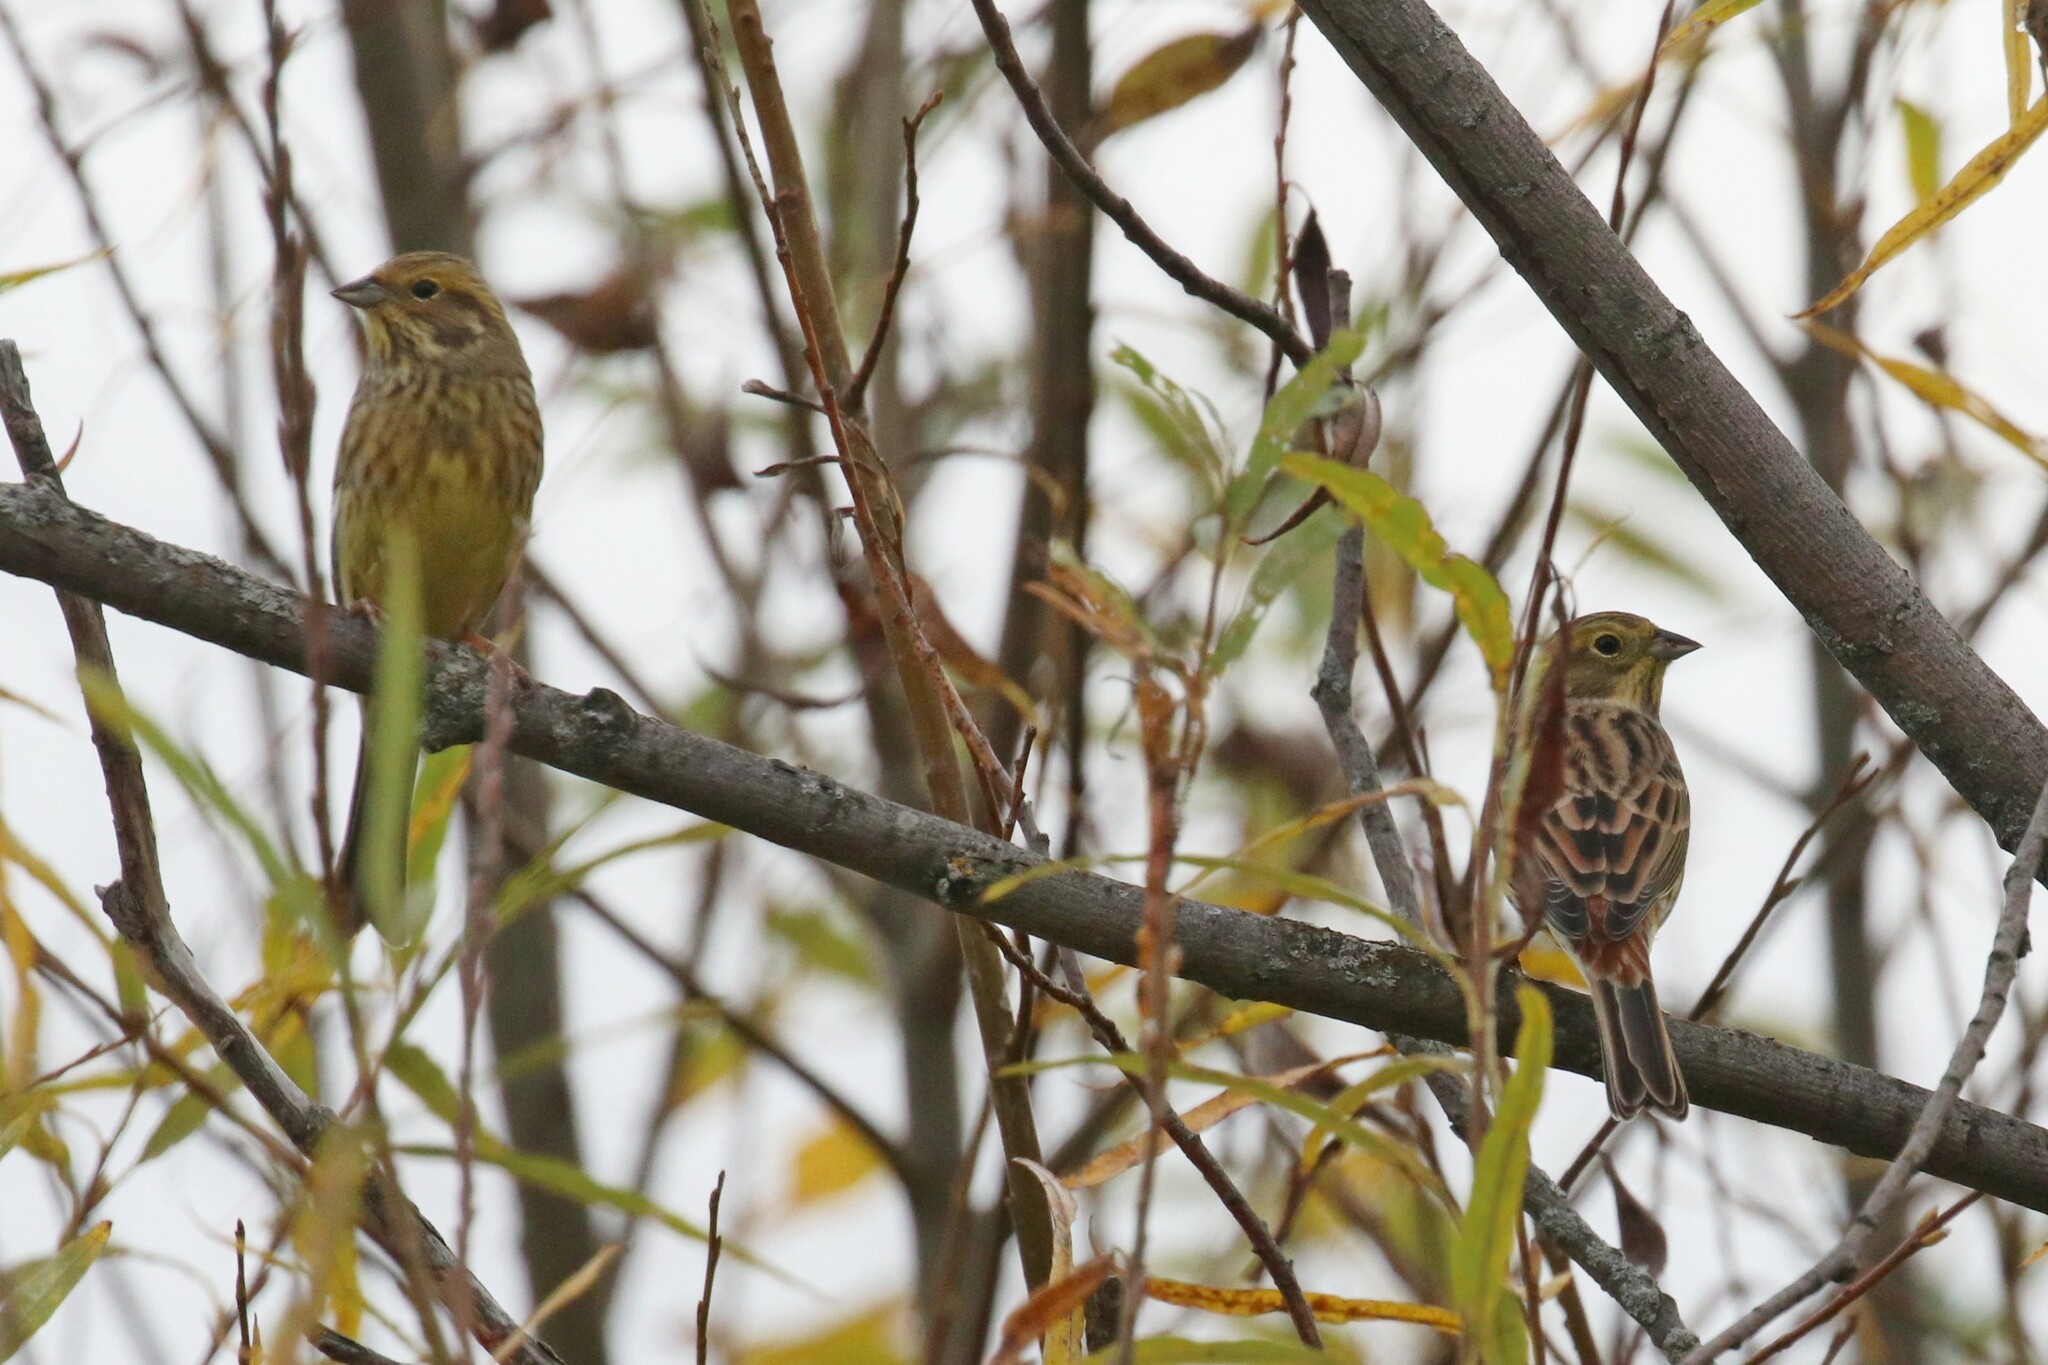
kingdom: Animalia
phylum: Chordata
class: Aves
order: Passeriformes
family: Emberizidae
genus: Emberiza
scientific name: Emberiza citrinella
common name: Yellowhammer
